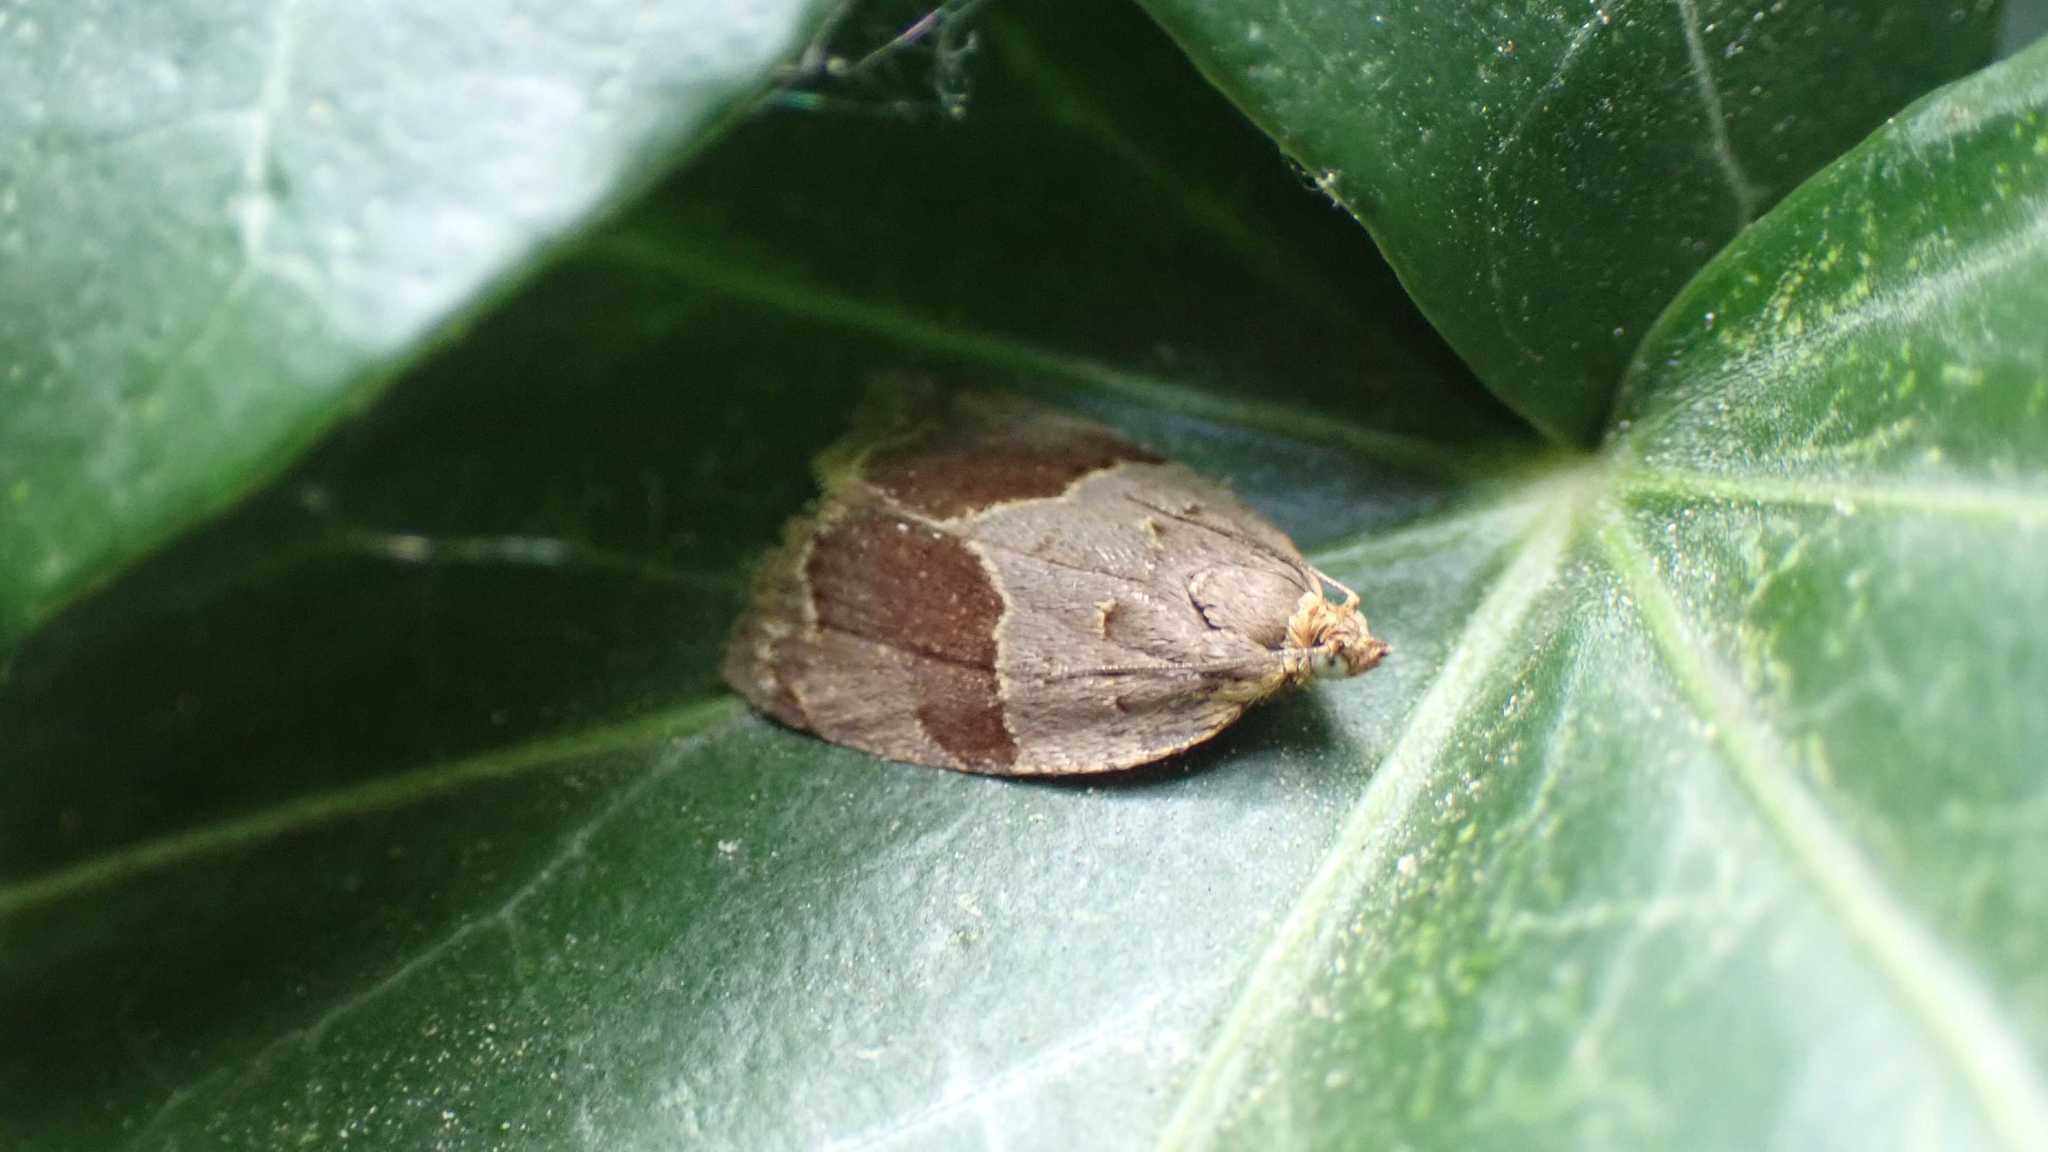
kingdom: Animalia
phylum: Arthropoda
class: Insecta
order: Lepidoptera
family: Tortricidae
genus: Clepsis
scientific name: Clepsis dumicolana
